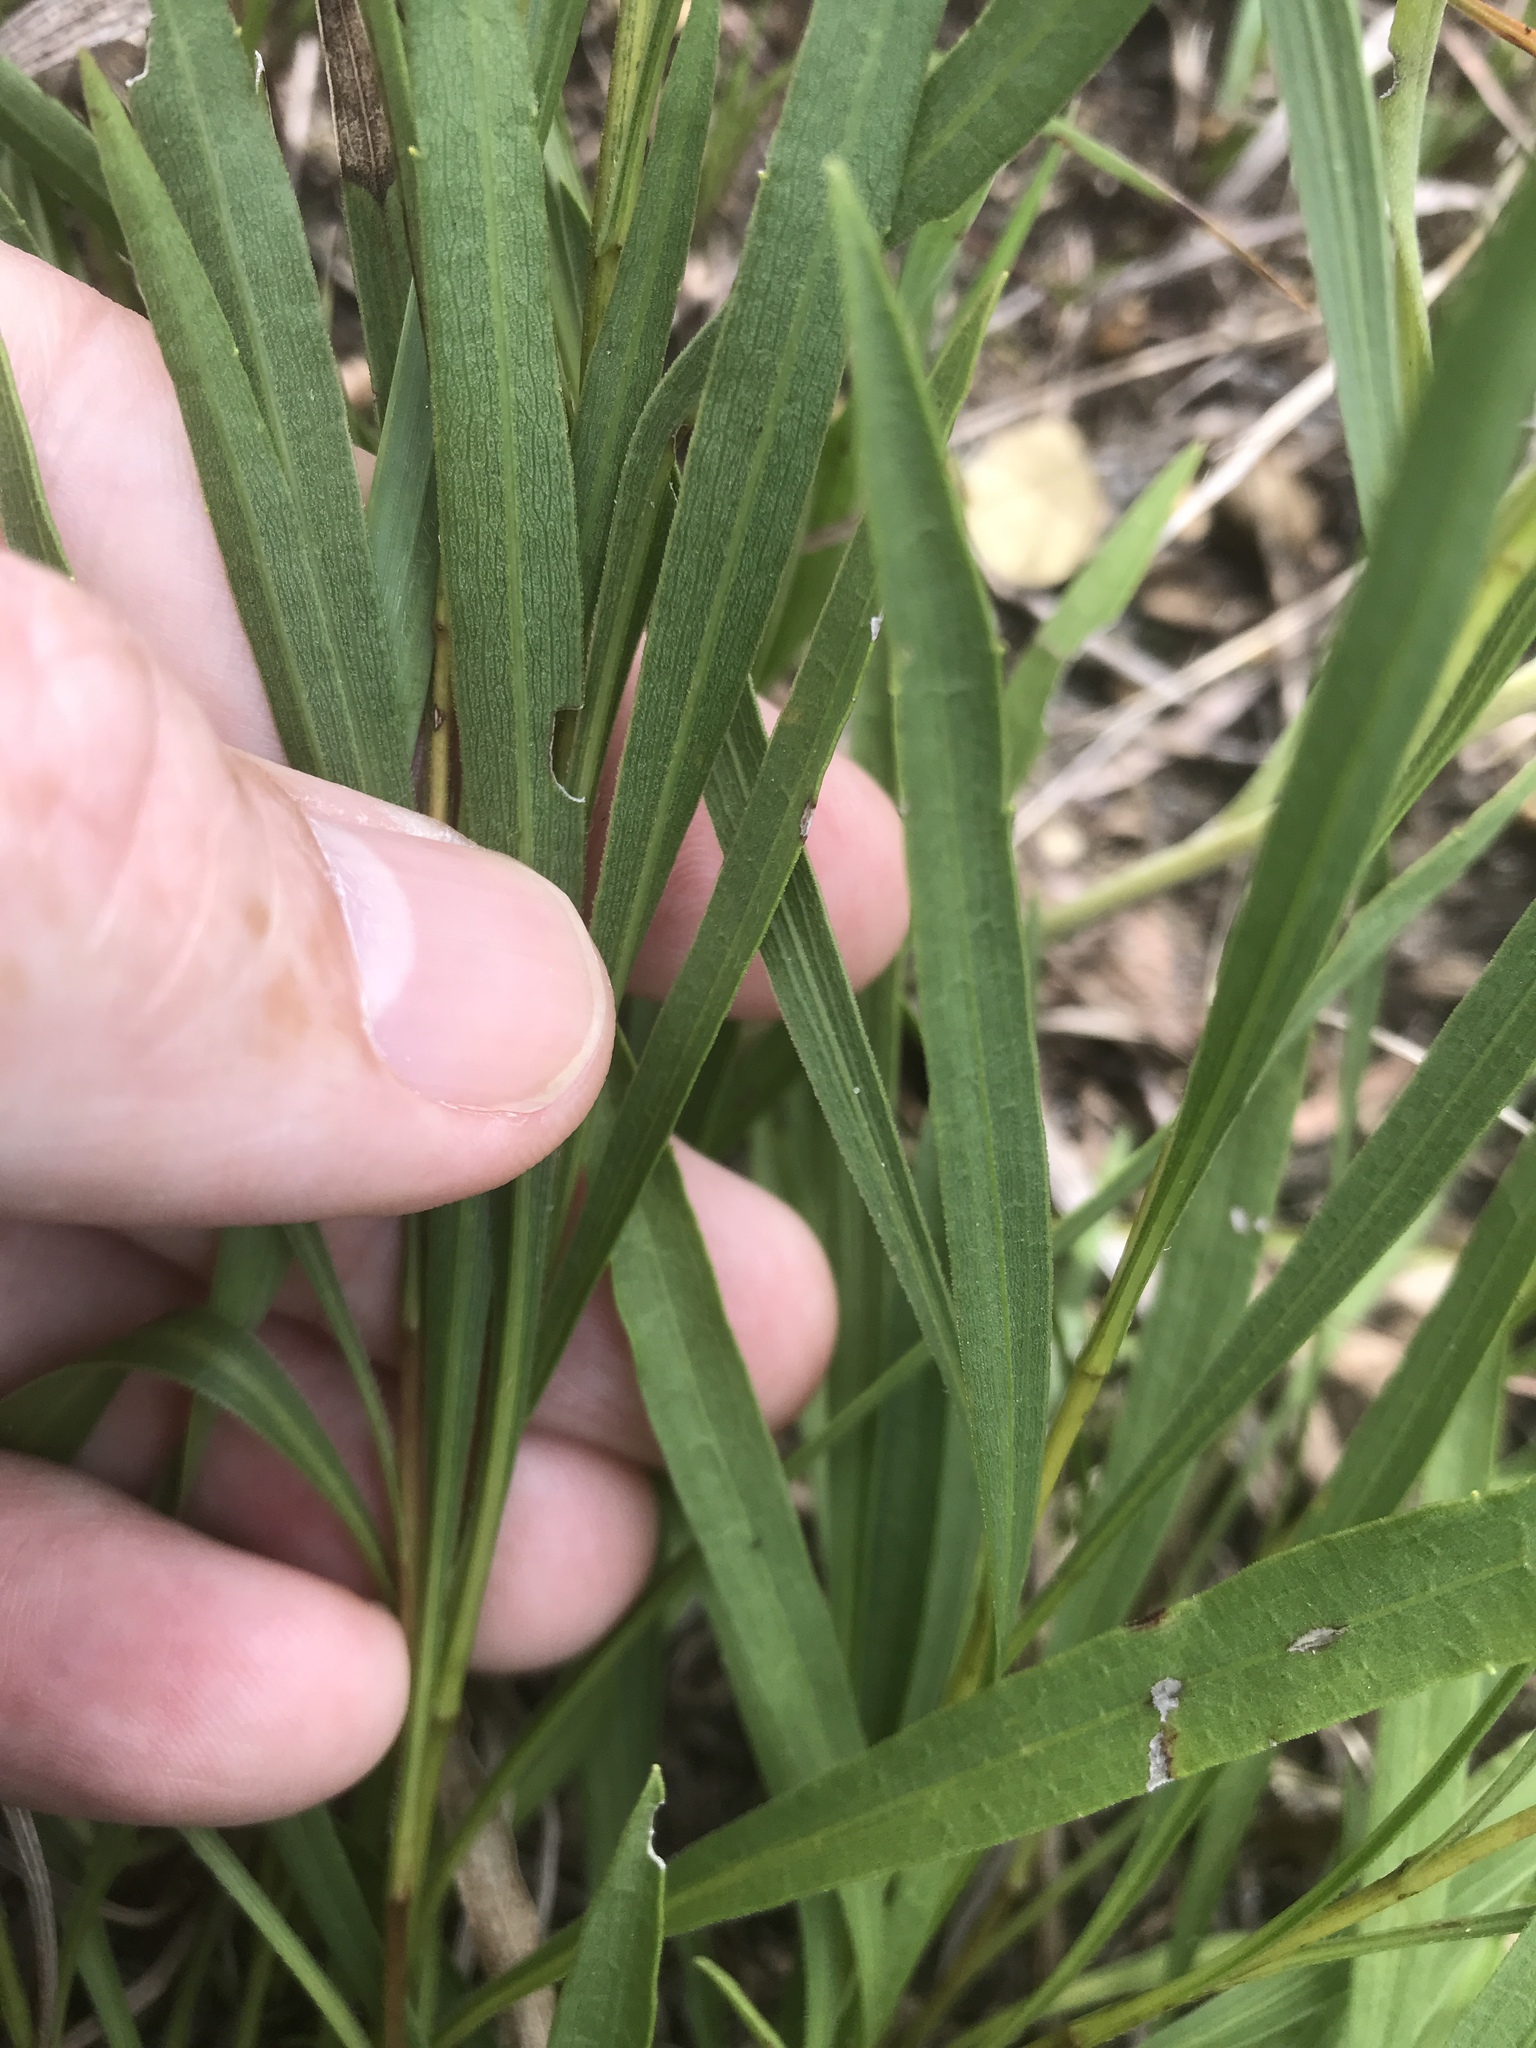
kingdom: Plantae
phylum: Tracheophyta
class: Magnoliopsida
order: Asterales
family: Asteraceae
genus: Solidago
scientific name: Solidago ptarmicoides
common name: White flat-top goldenrod
